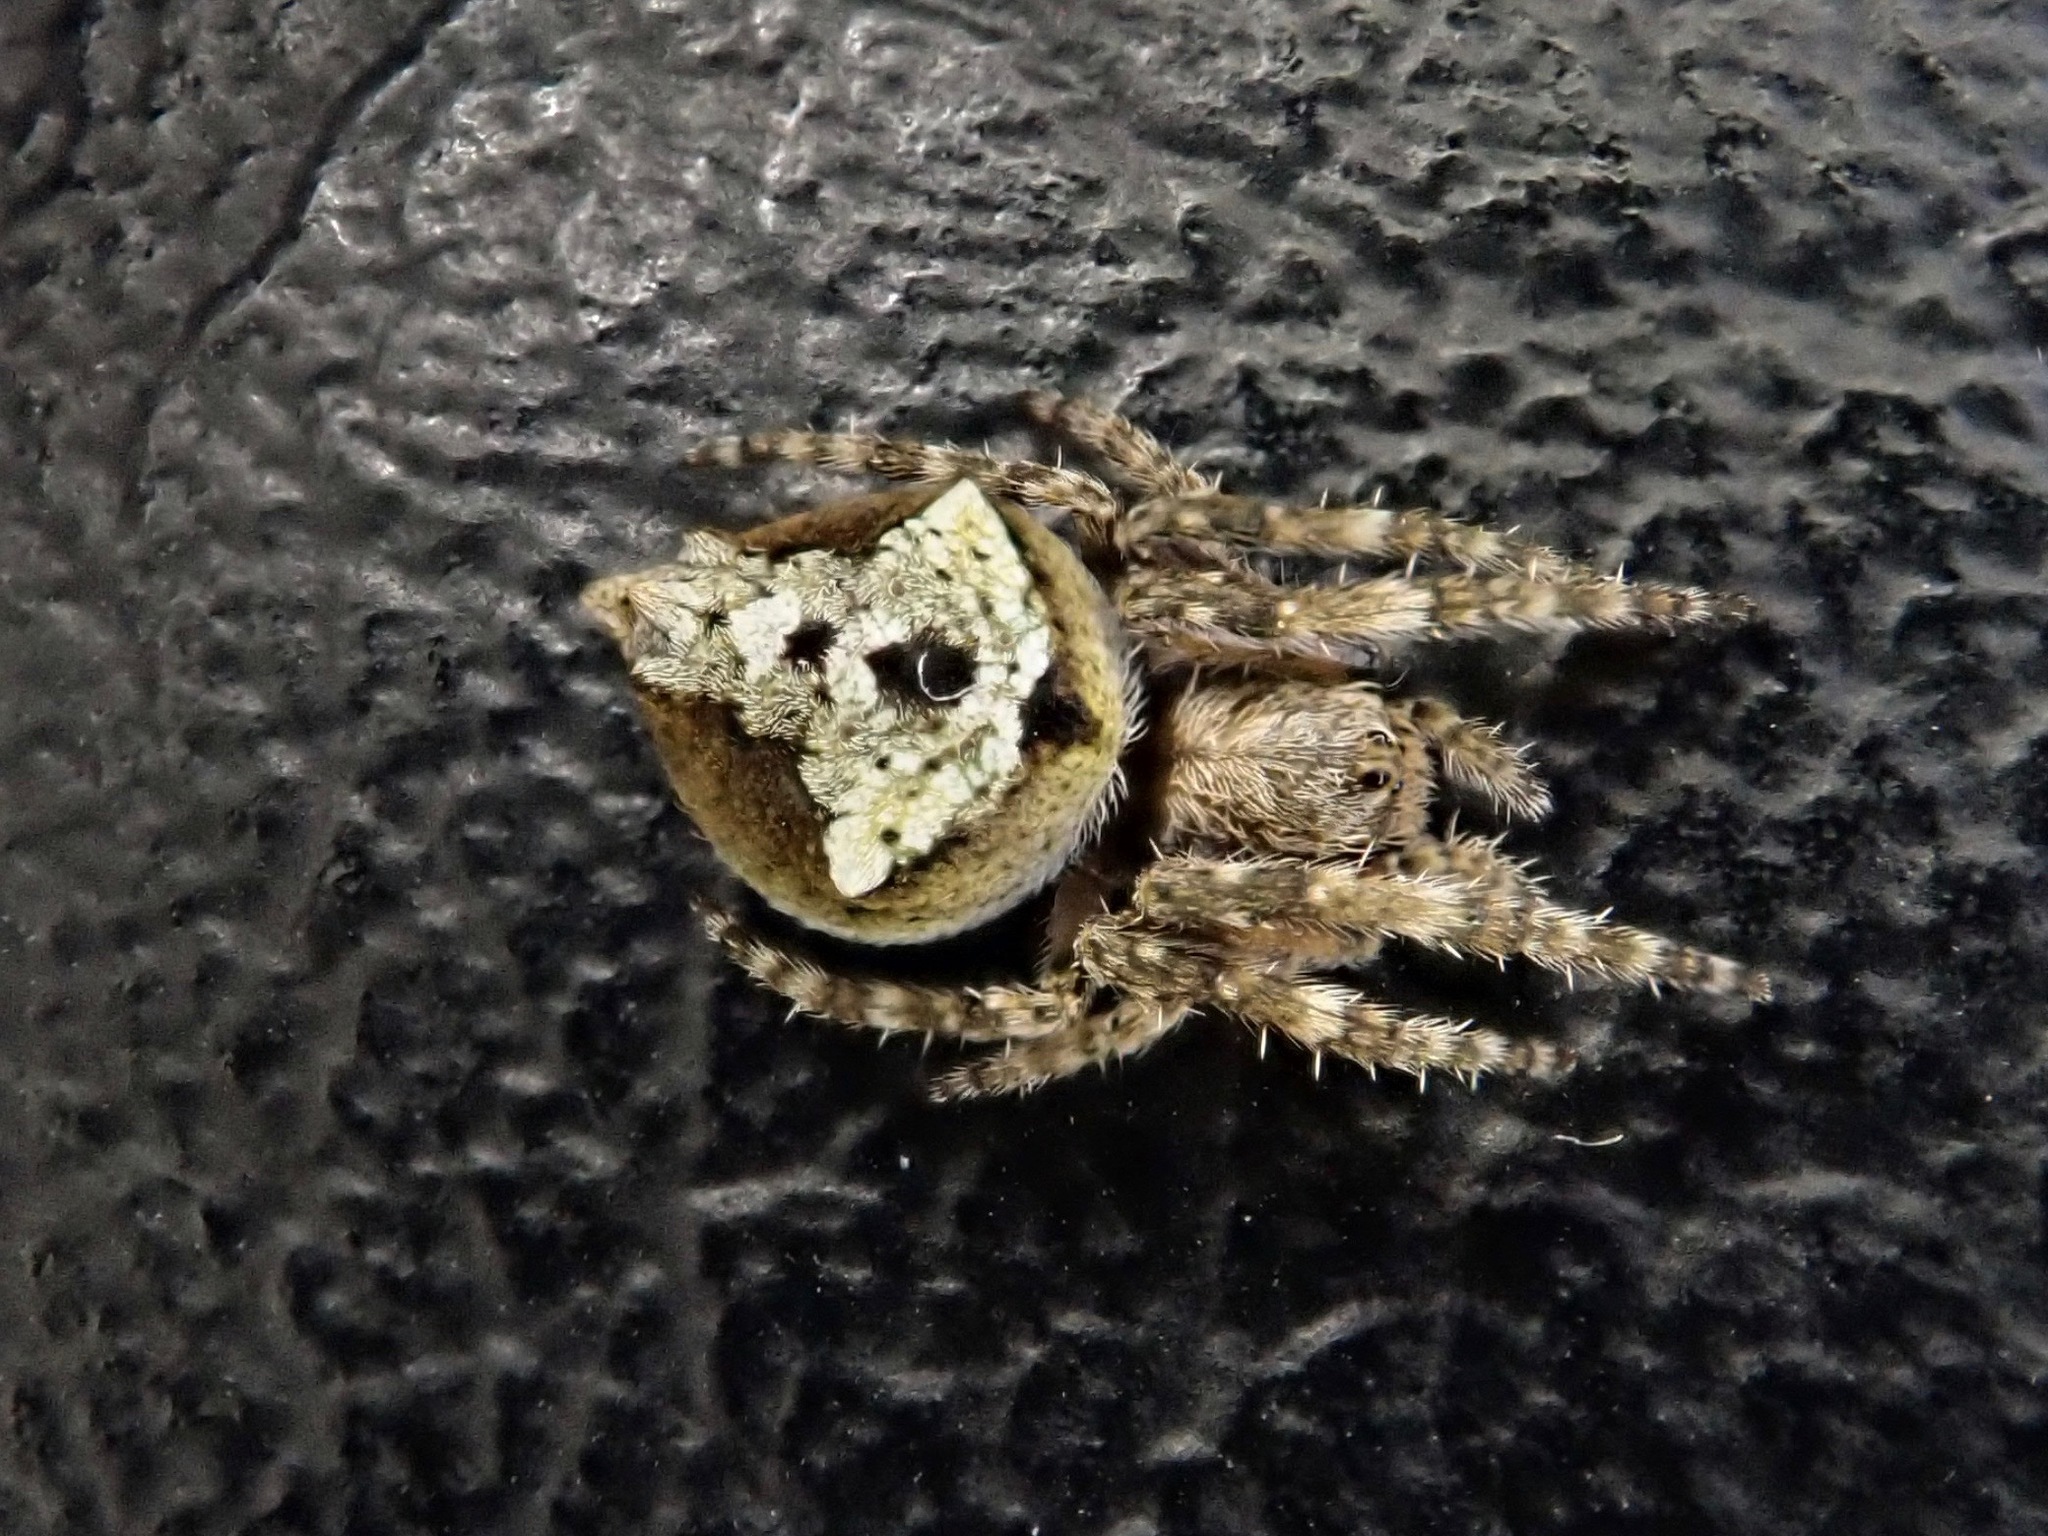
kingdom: Animalia
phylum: Arthropoda
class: Arachnida
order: Araneae
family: Araneidae
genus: Eriophora
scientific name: Eriophora pustulosa
